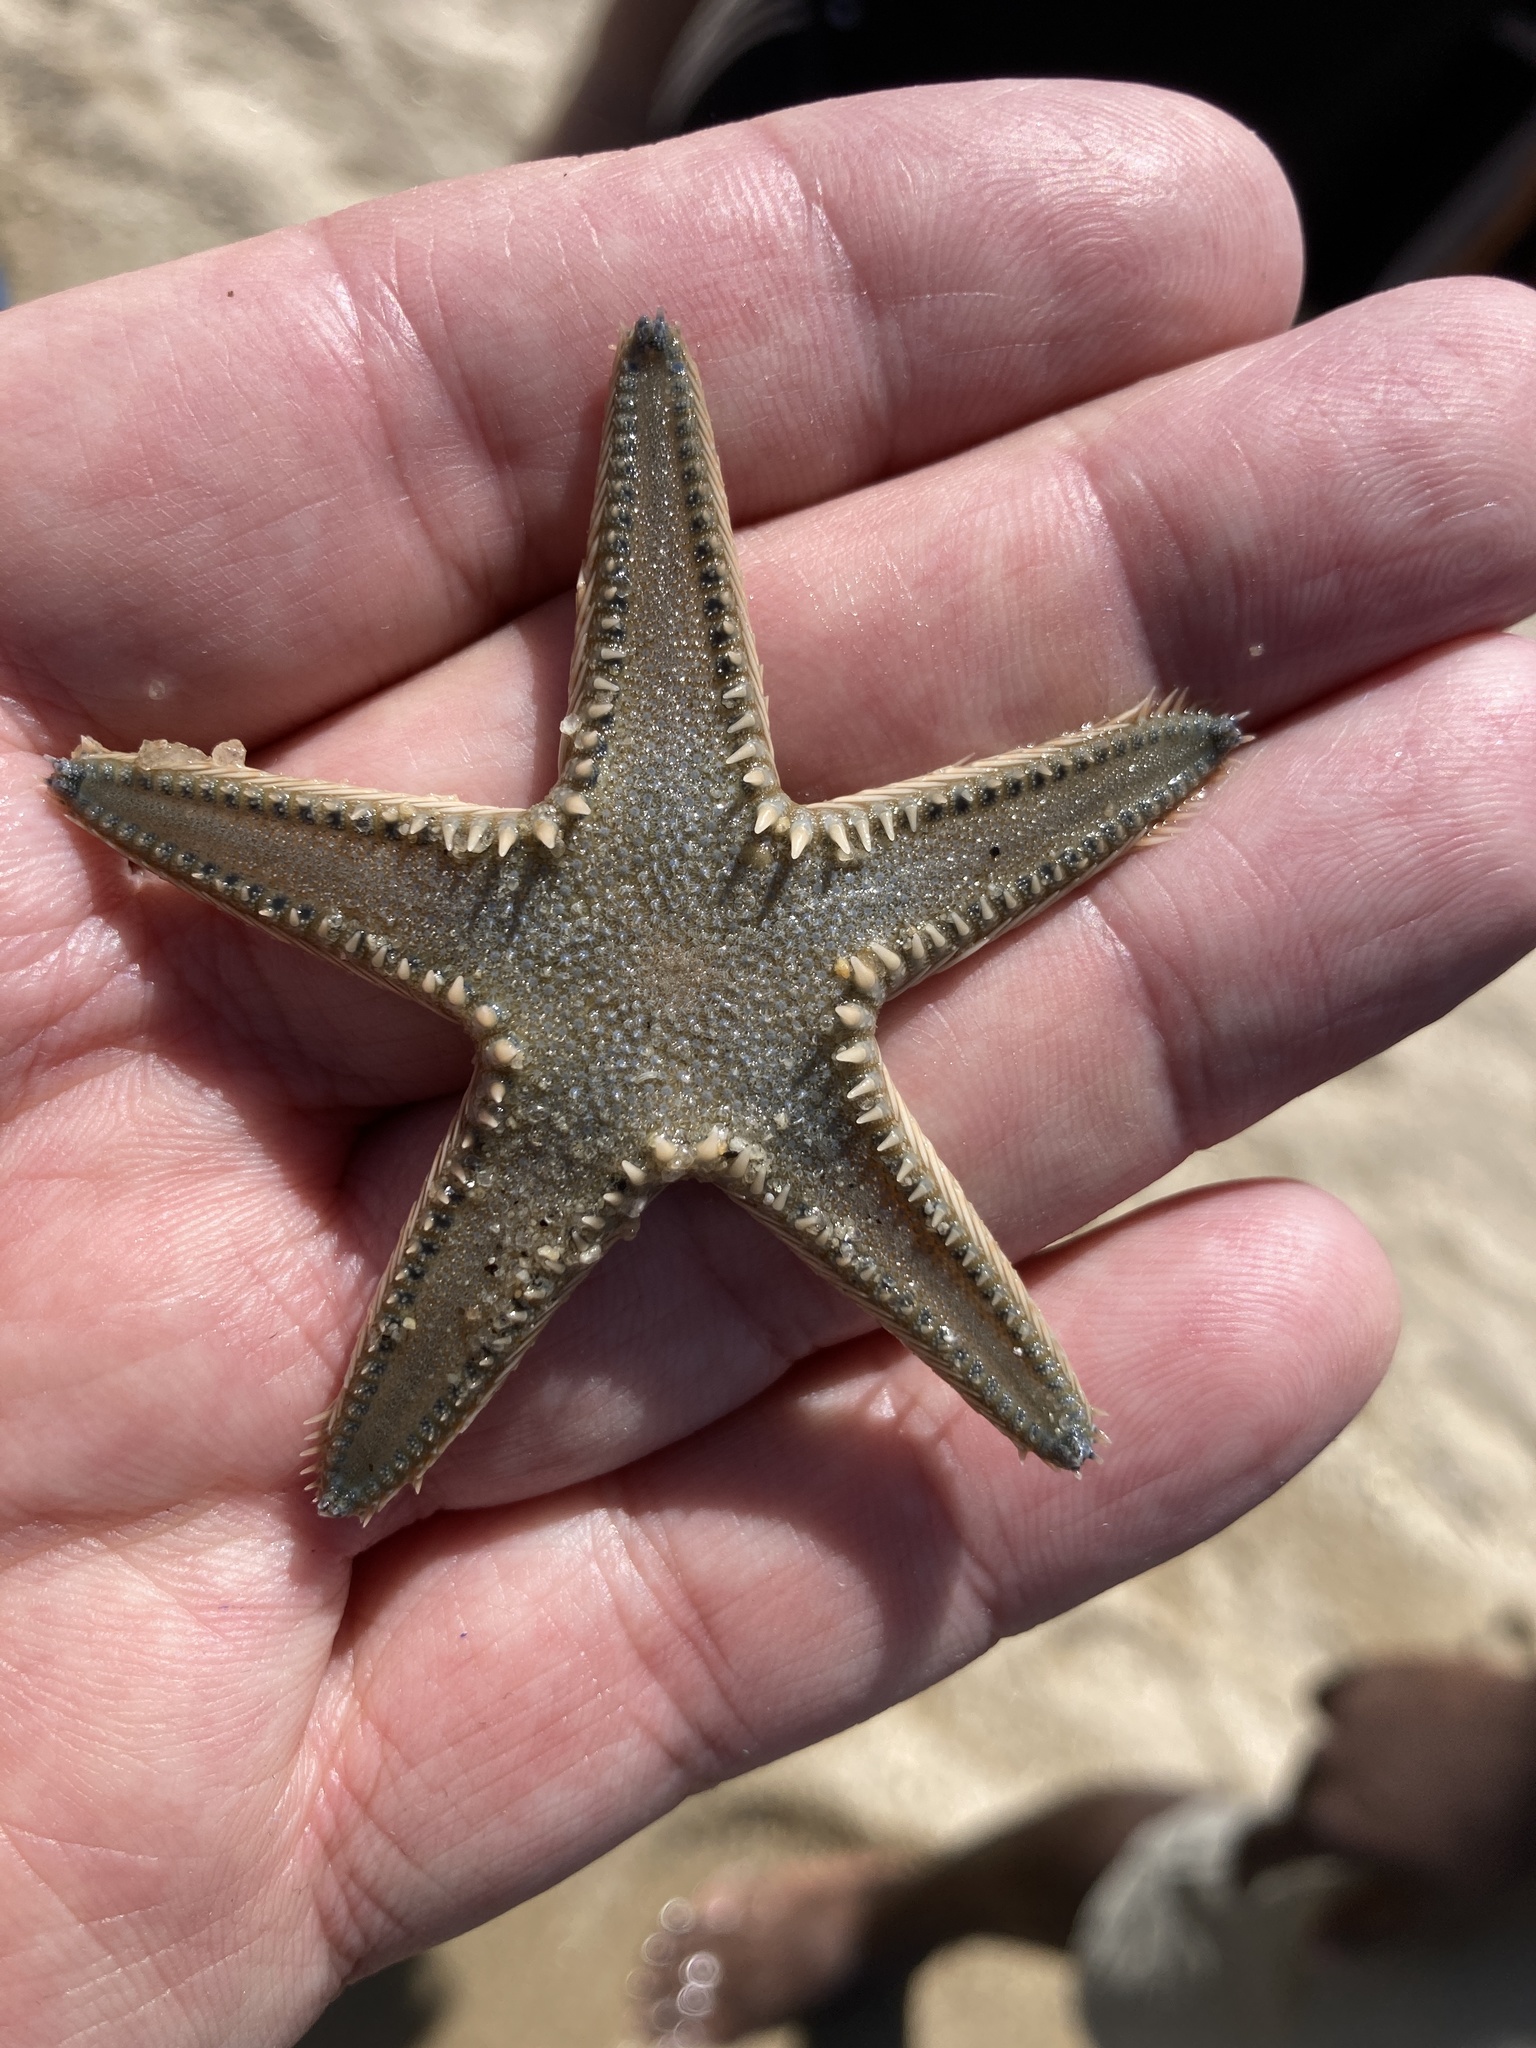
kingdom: Animalia
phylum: Echinodermata
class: Asteroidea
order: Paxillosida
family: Astropectinidae
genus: Astropecten
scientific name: Astropecten platyacanthus
